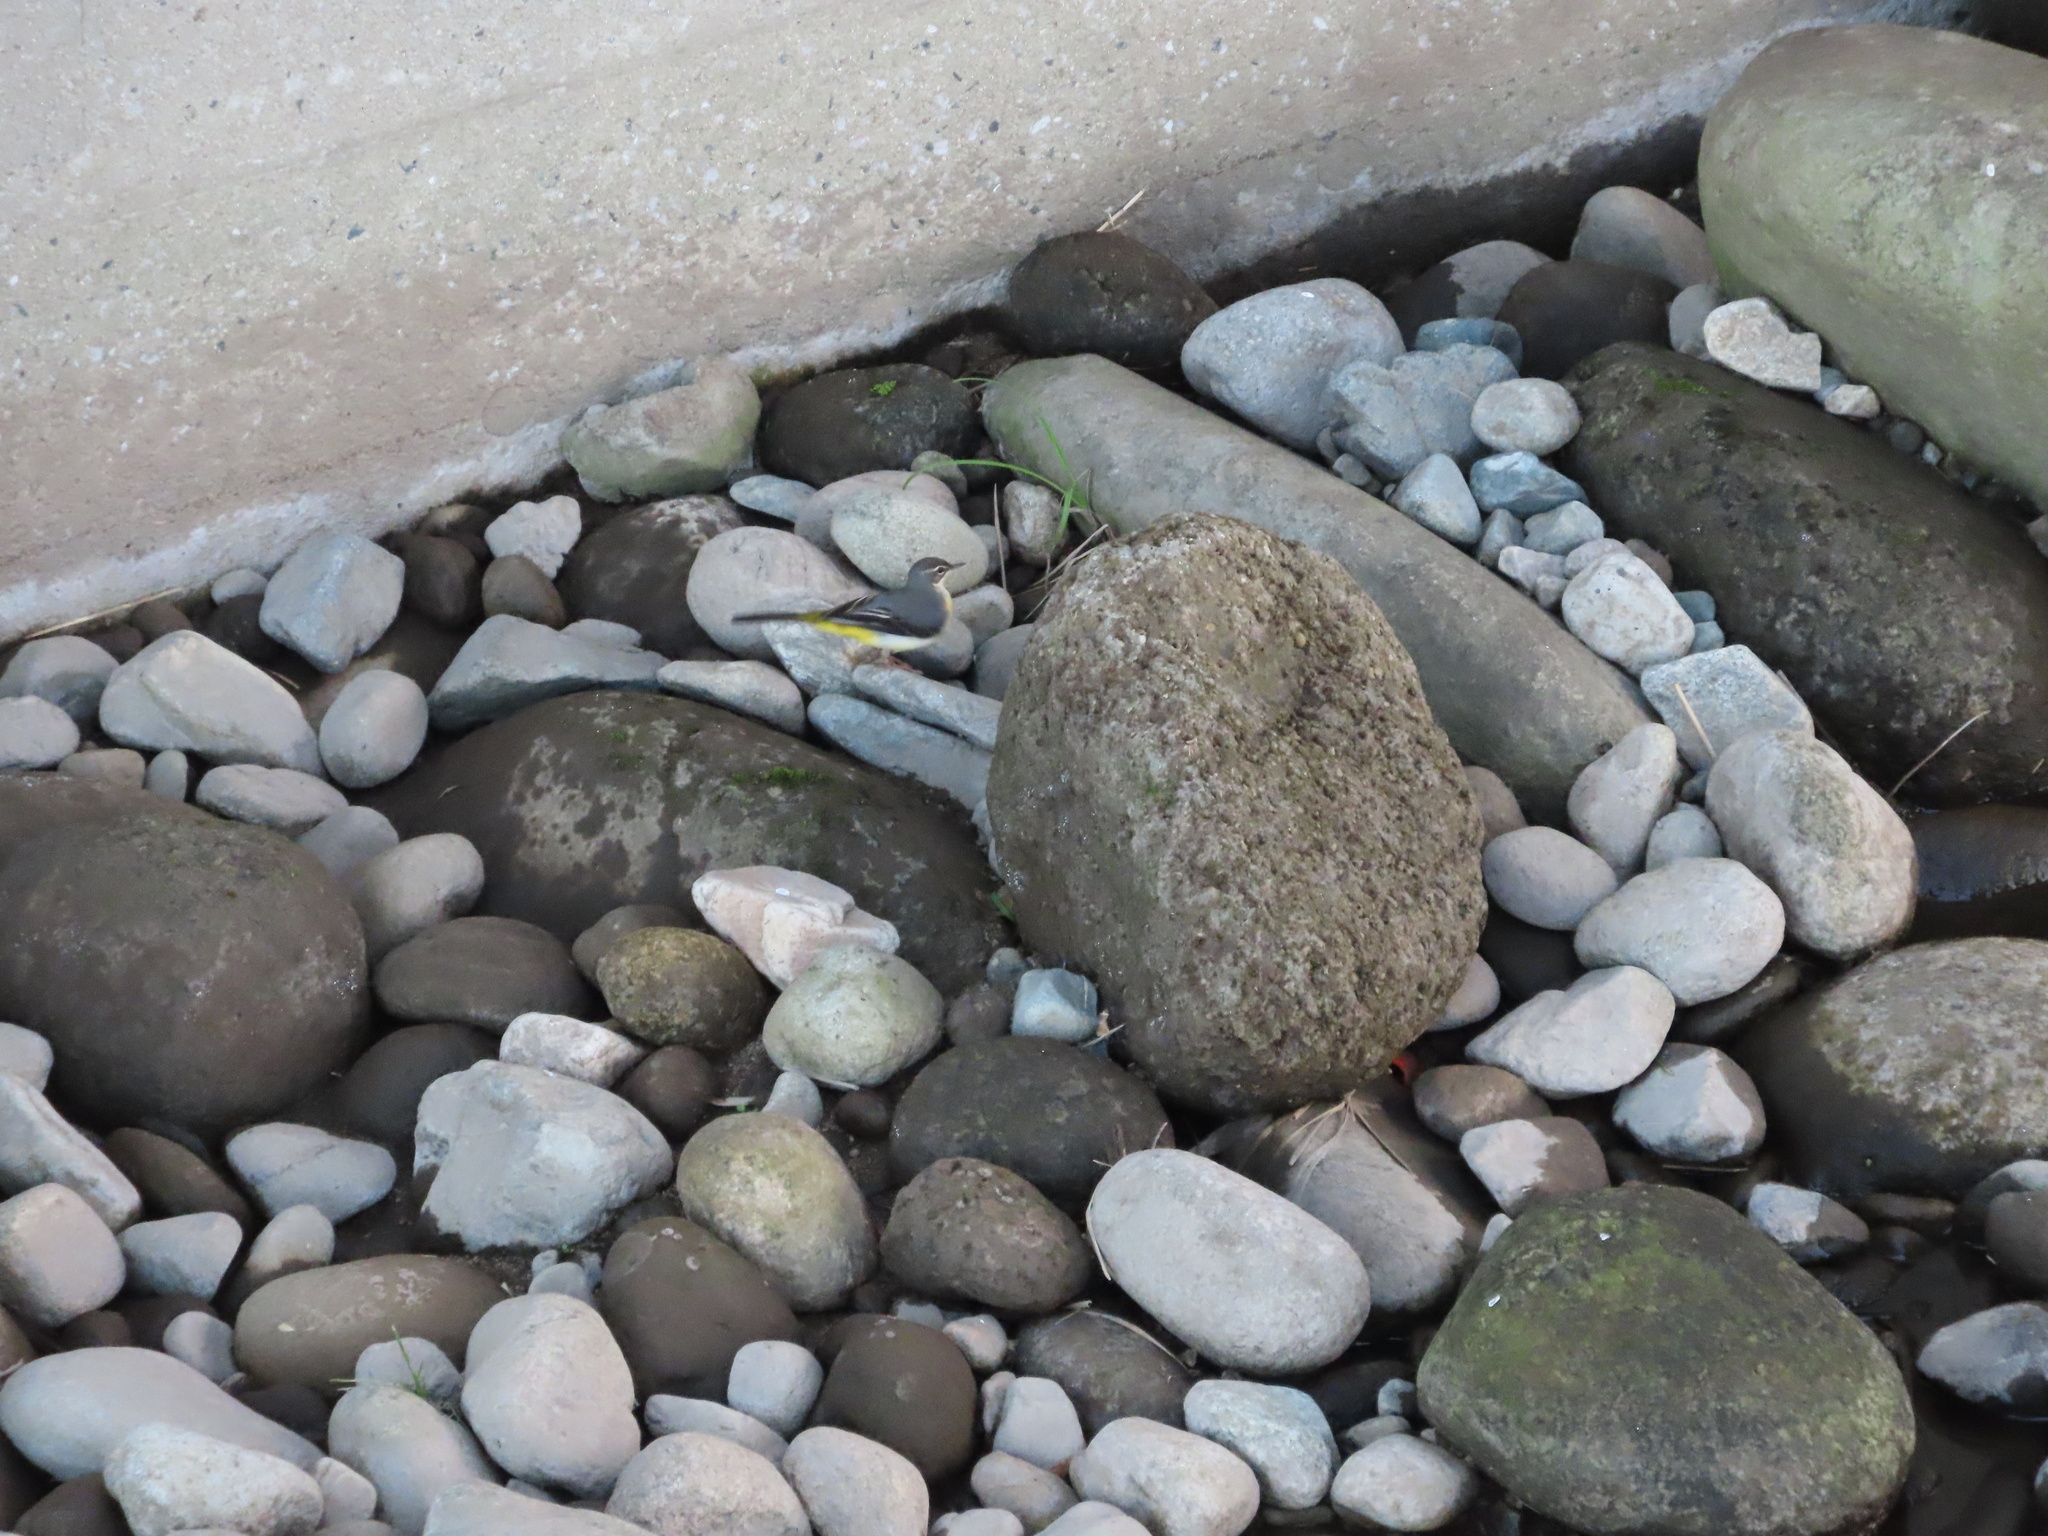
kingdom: Animalia
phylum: Chordata
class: Aves
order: Passeriformes
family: Motacillidae
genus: Motacilla
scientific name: Motacilla cinerea
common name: Grey wagtail
